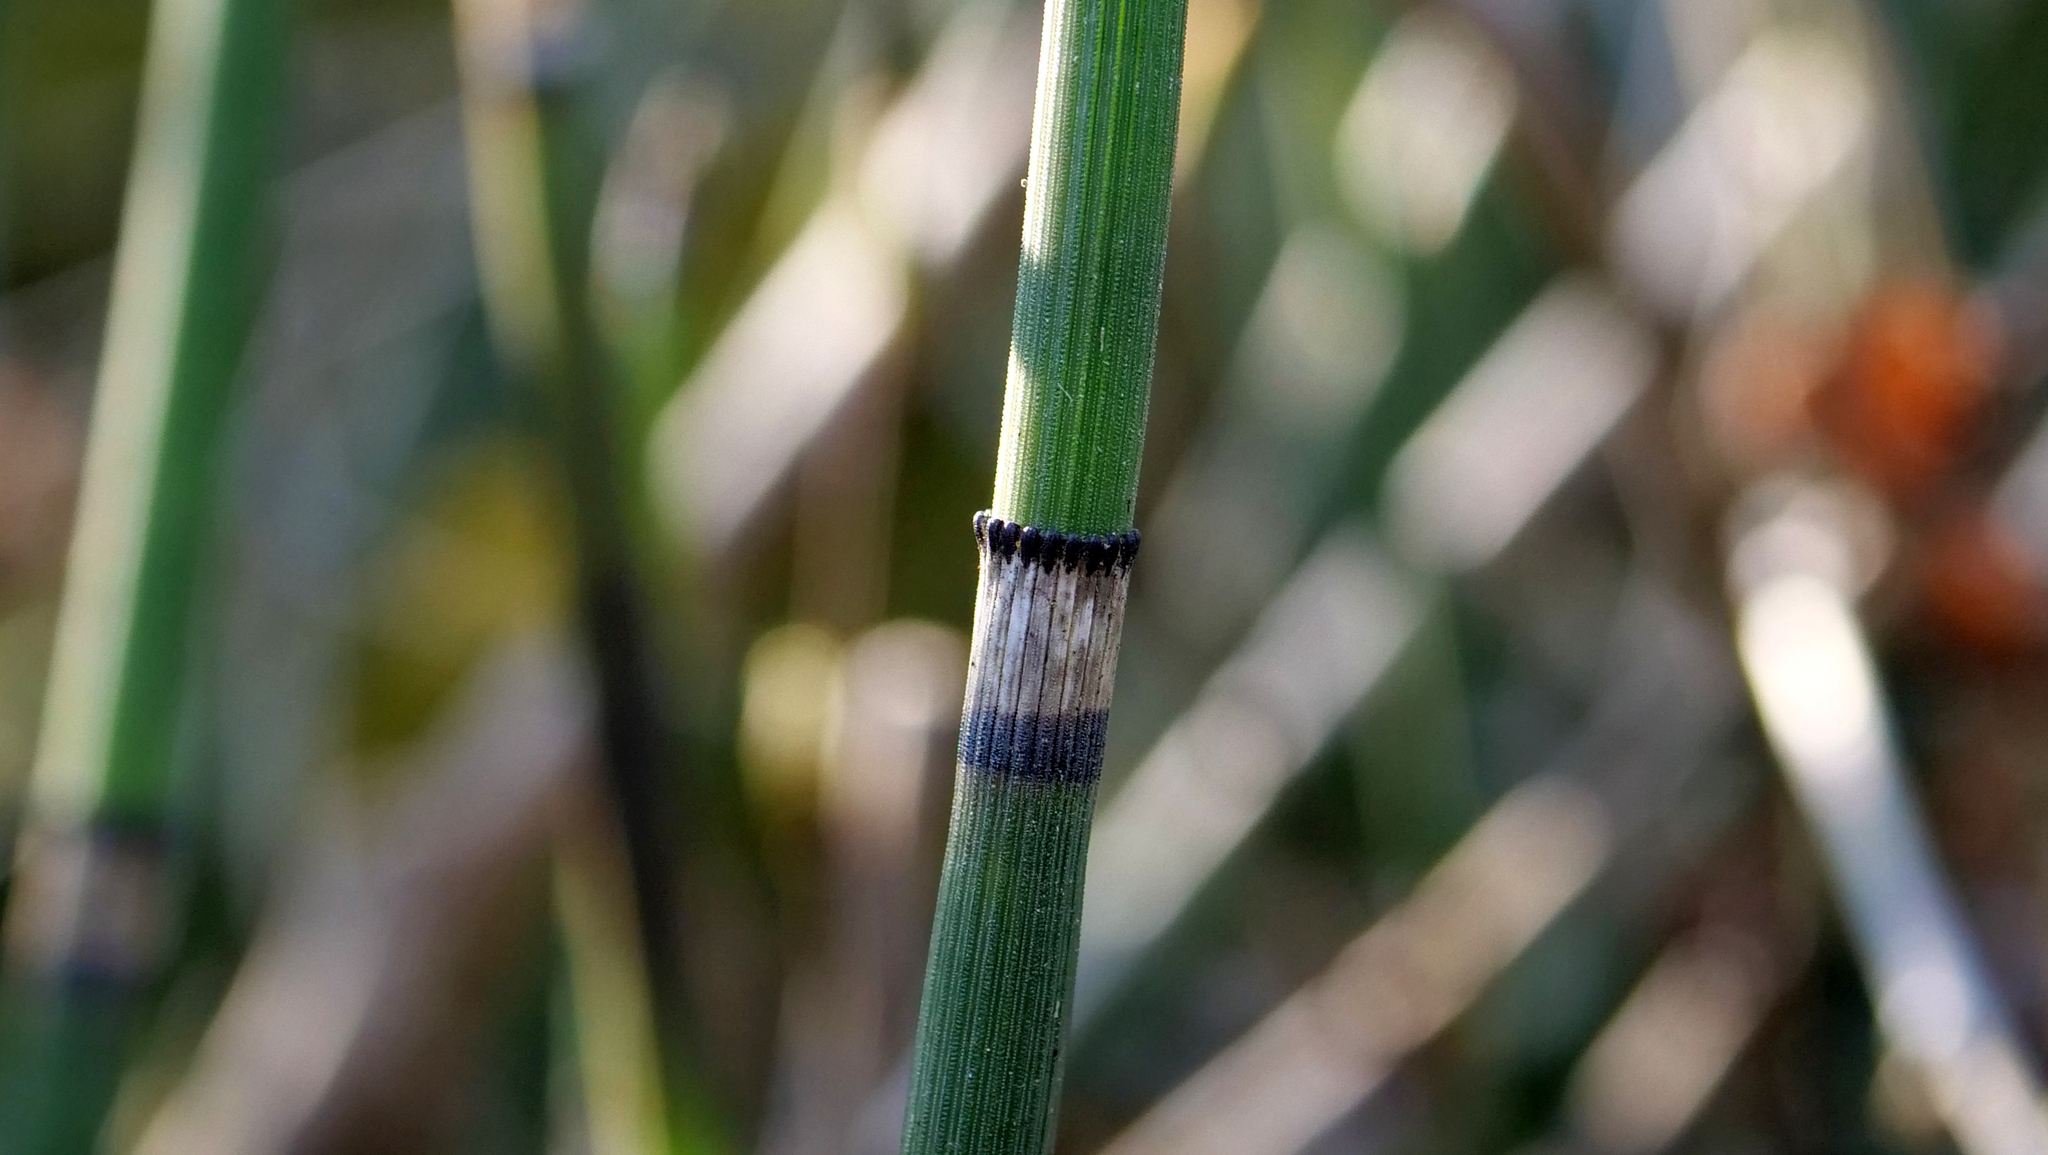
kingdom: Plantae
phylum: Tracheophyta
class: Polypodiopsida
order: Equisetales
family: Equisetaceae
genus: Equisetum
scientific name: Equisetum hyemale
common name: Rough horsetail
